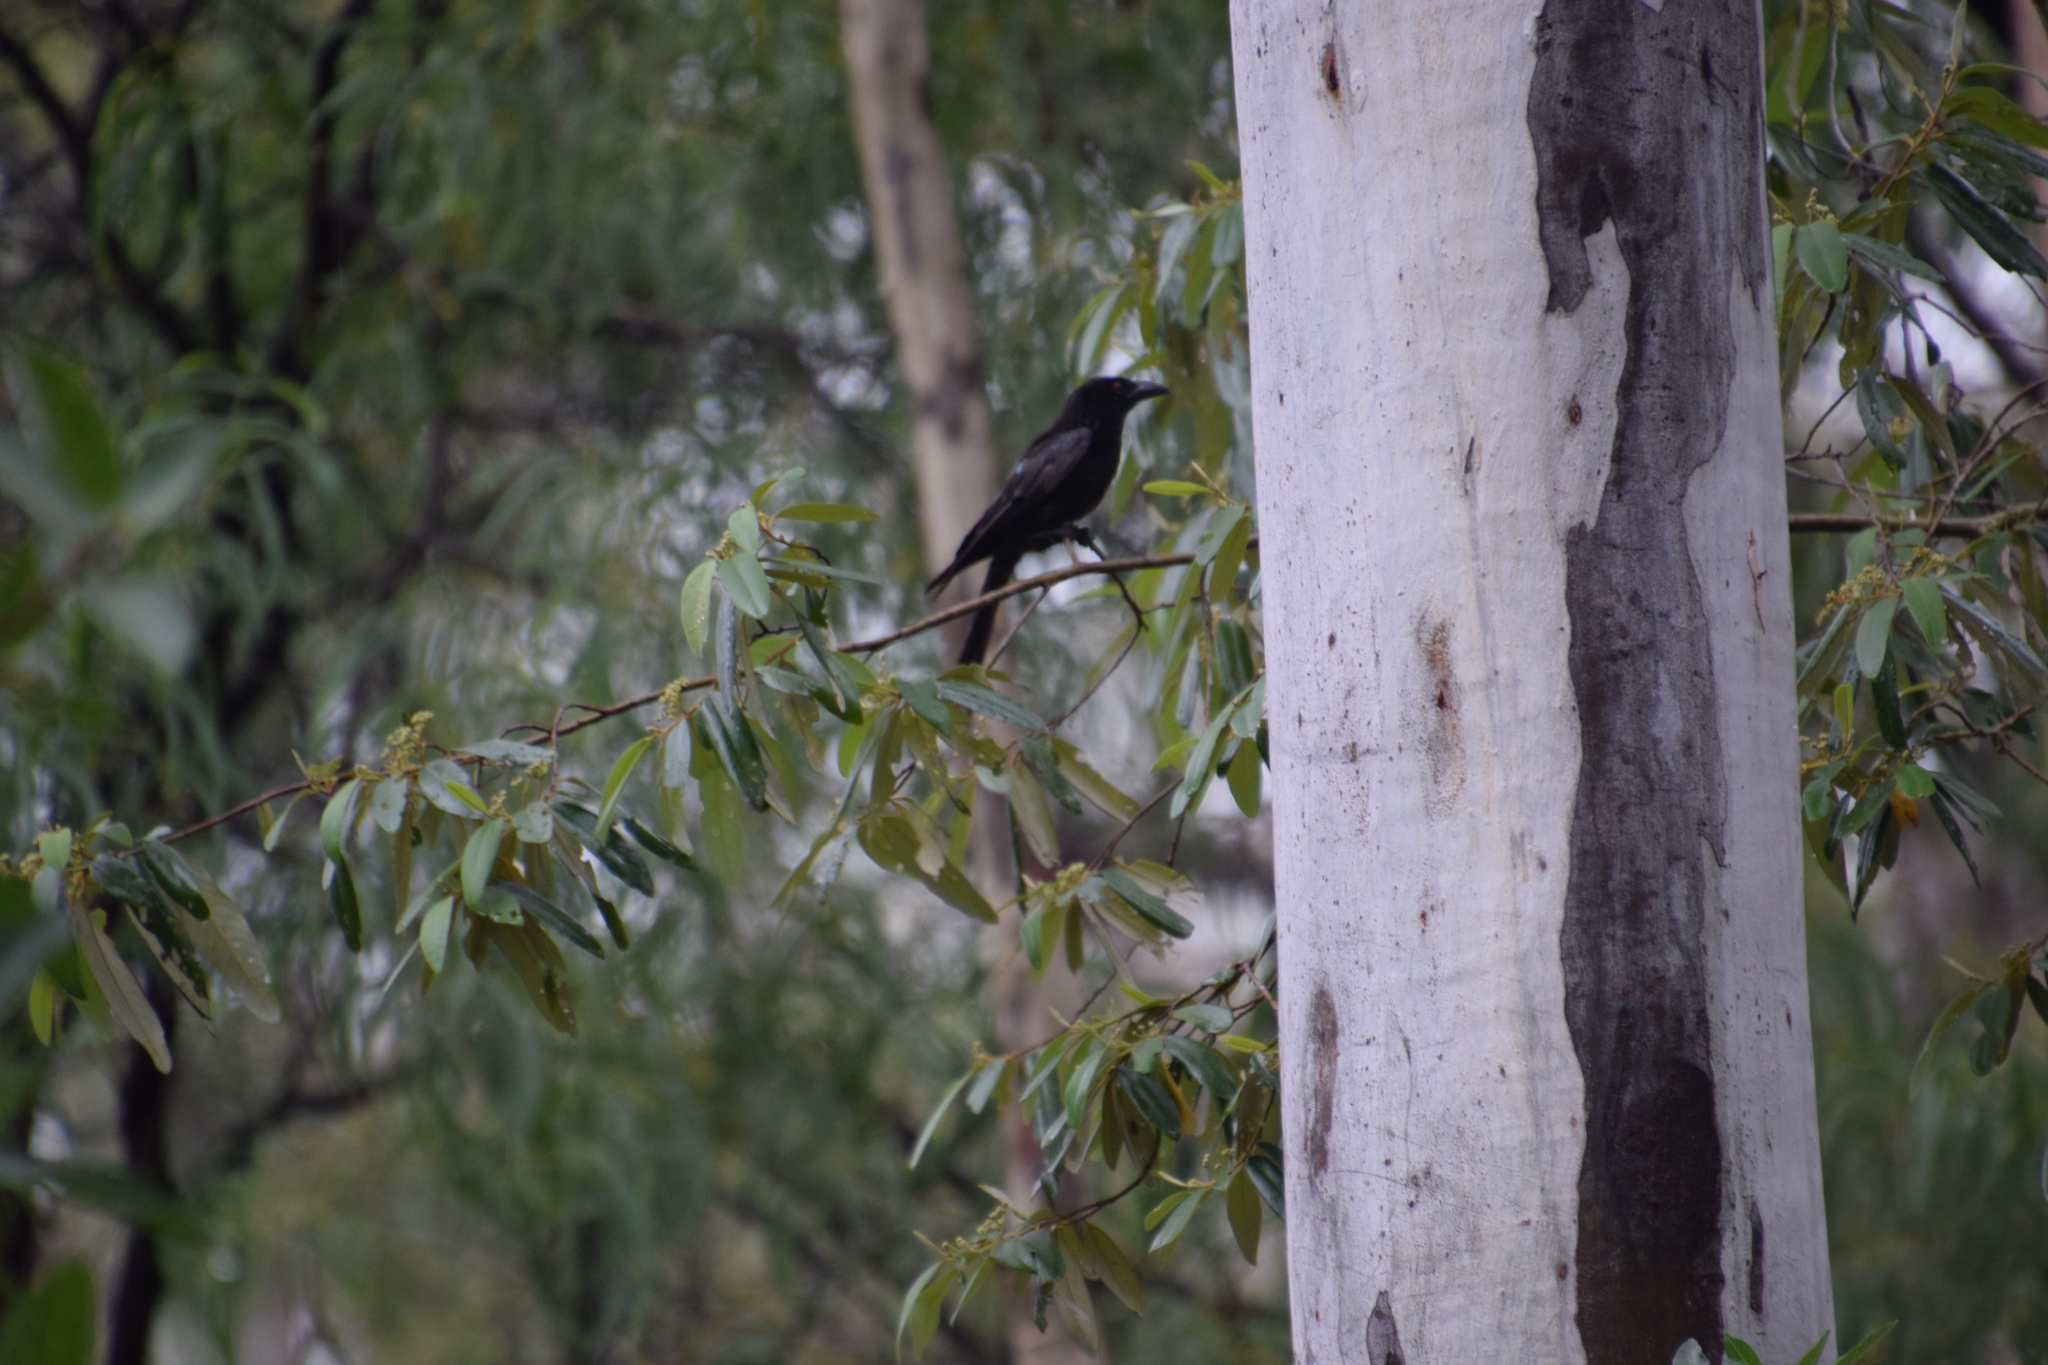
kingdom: Animalia
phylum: Chordata
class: Aves
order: Passeriformes
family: Dicruridae
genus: Dicrurus
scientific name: Dicrurus bracteatus
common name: Spangled drongo
